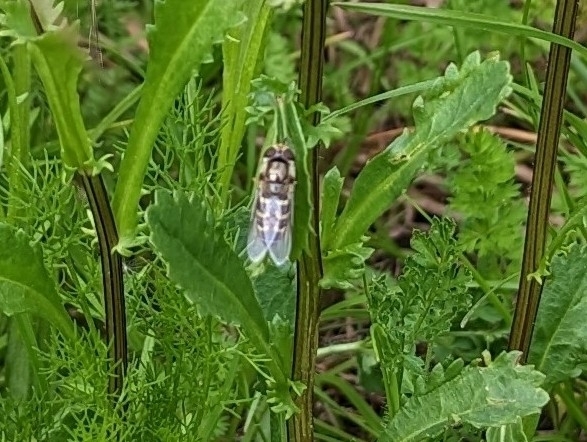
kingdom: Animalia
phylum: Arthropoda
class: Insecta
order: Diptera
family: Syrphidae
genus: Scaeva
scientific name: Scaeva
